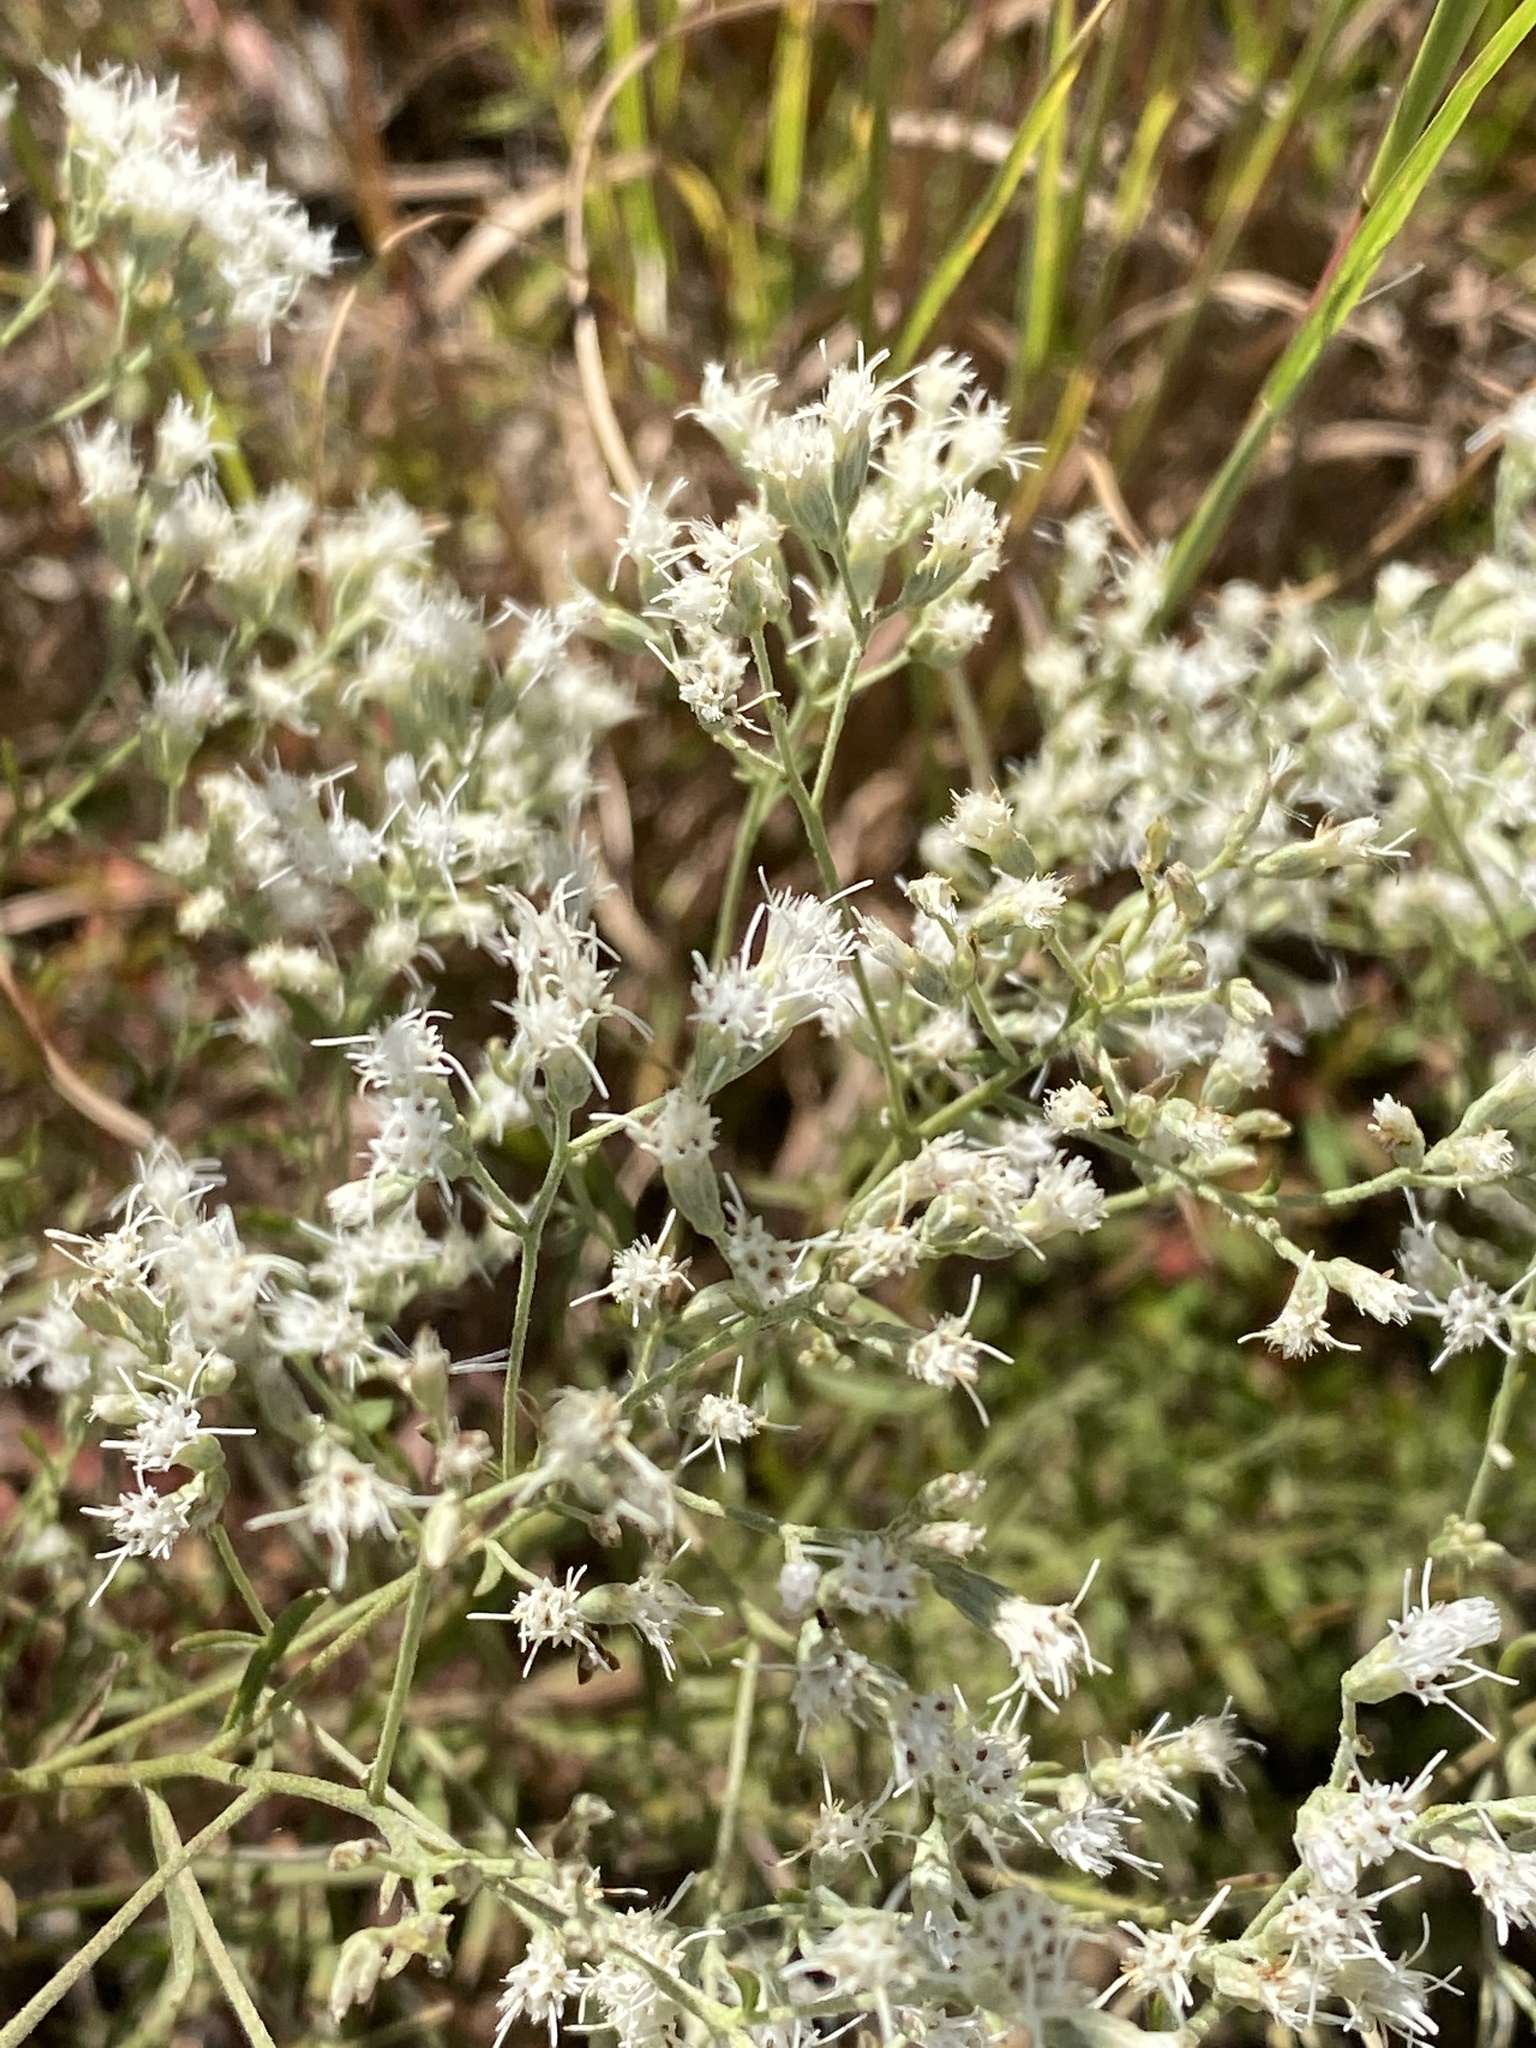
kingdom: Plantae
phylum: Tracheophyta
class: Magnoliopsida
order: Asterales
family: Asteraceae
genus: Eupatorium
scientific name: Eupatorium hyssopifolium
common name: Hyssop-leaf thoroughwort
